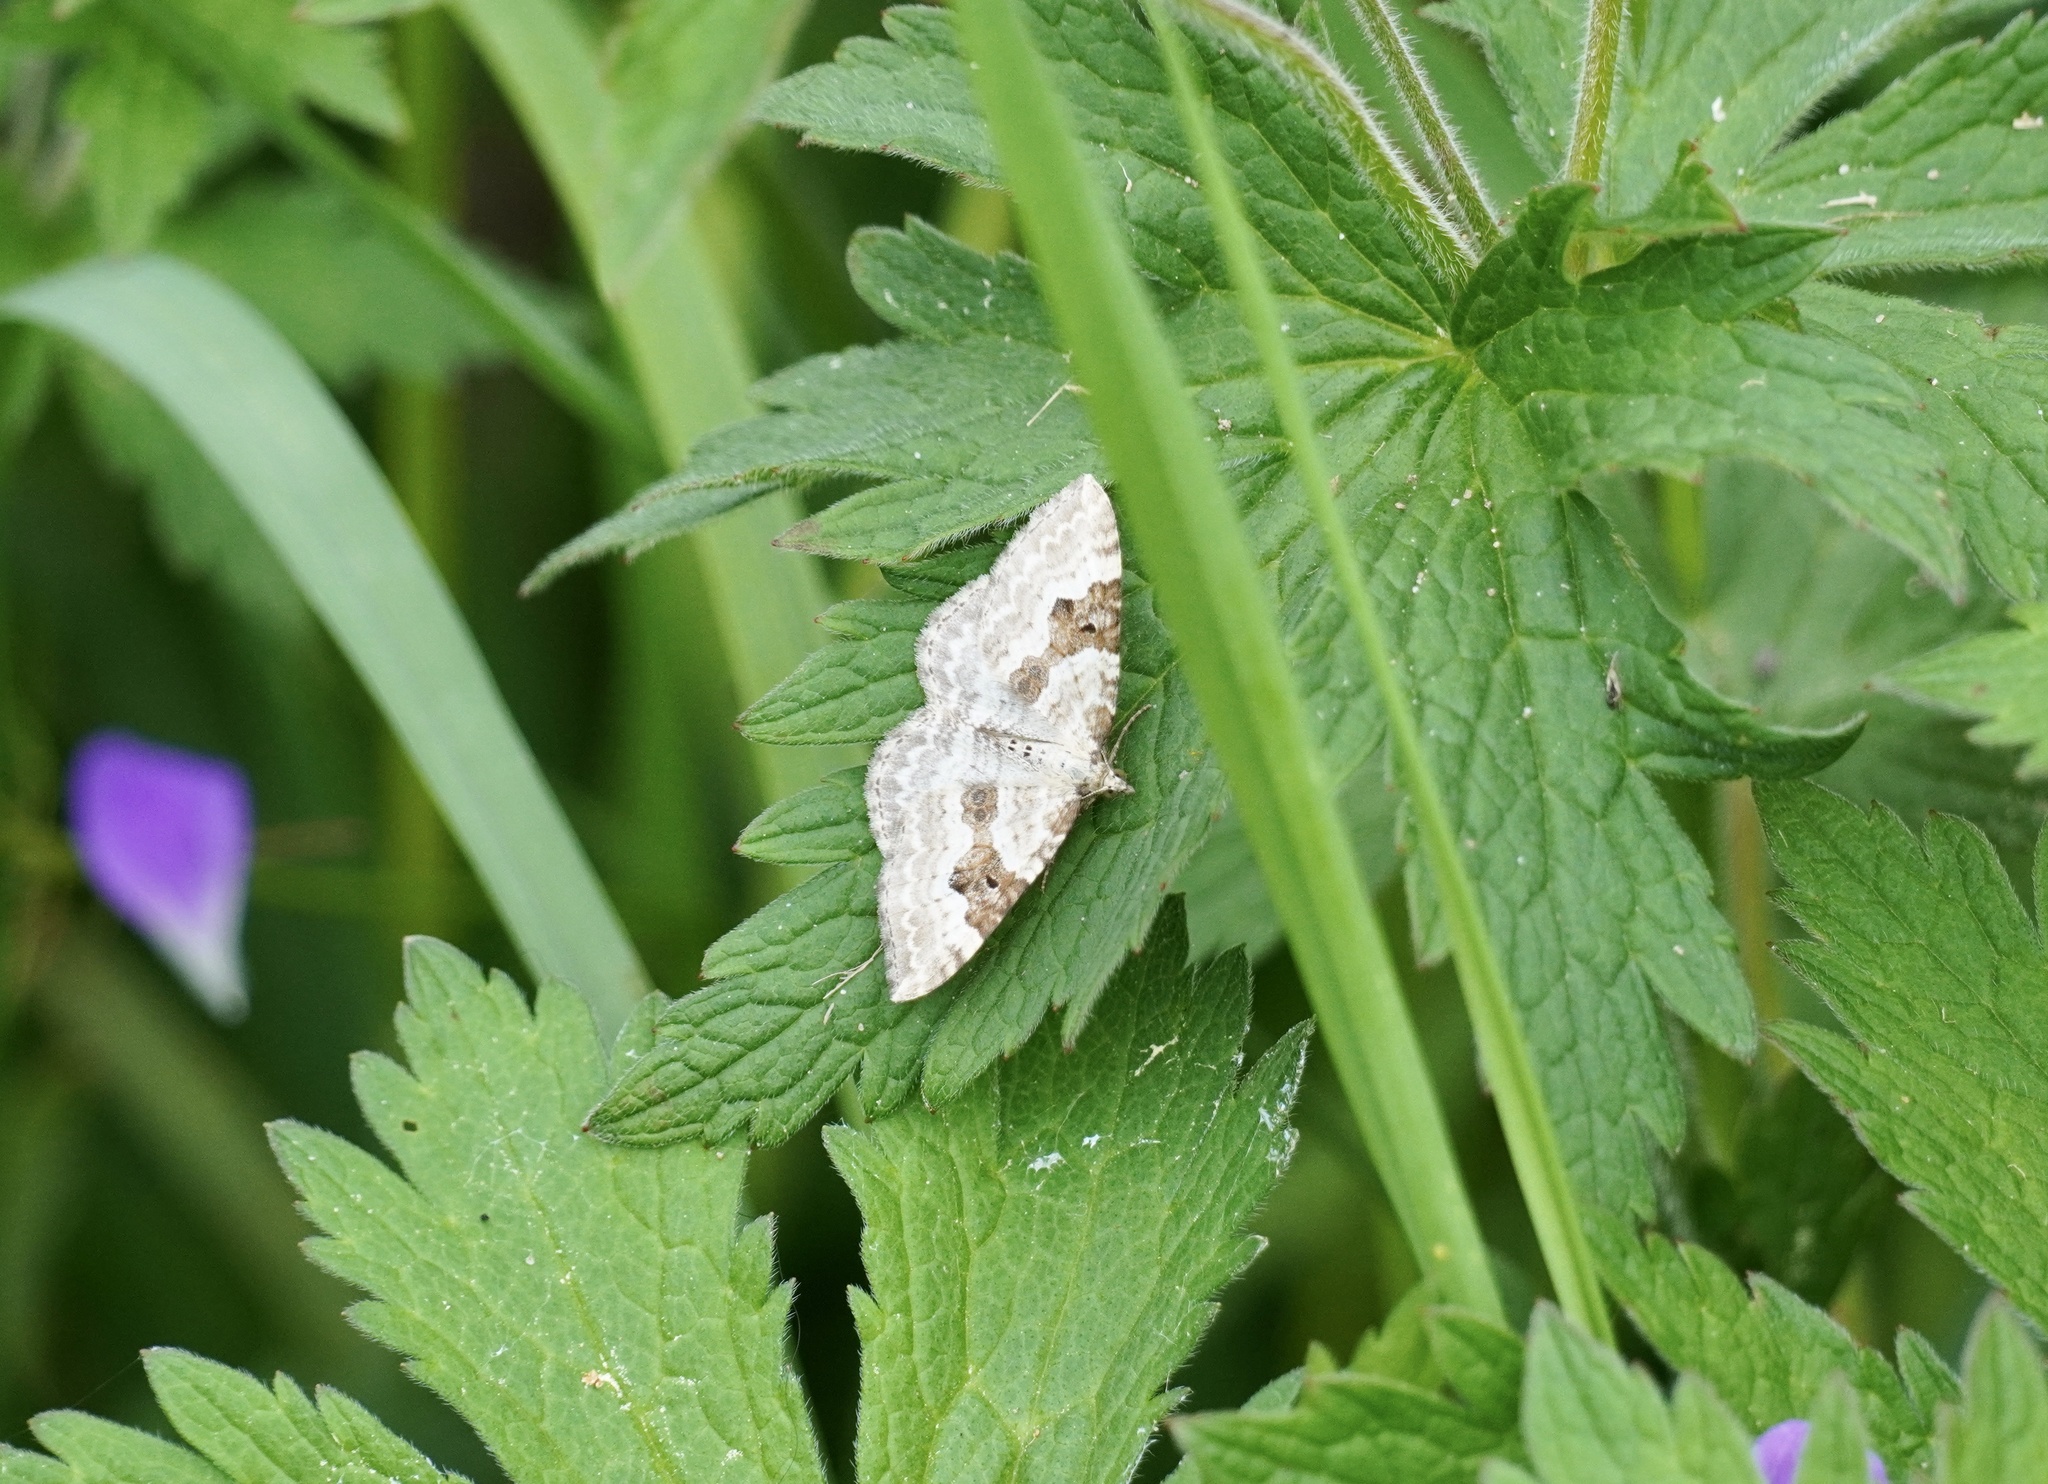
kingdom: Animalia
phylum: Arthropoda
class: Insecta
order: Lepidoptera
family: Geometridae
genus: Xanthorhoe
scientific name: Xanthorhoe montanata
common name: Silver-ground carpet
